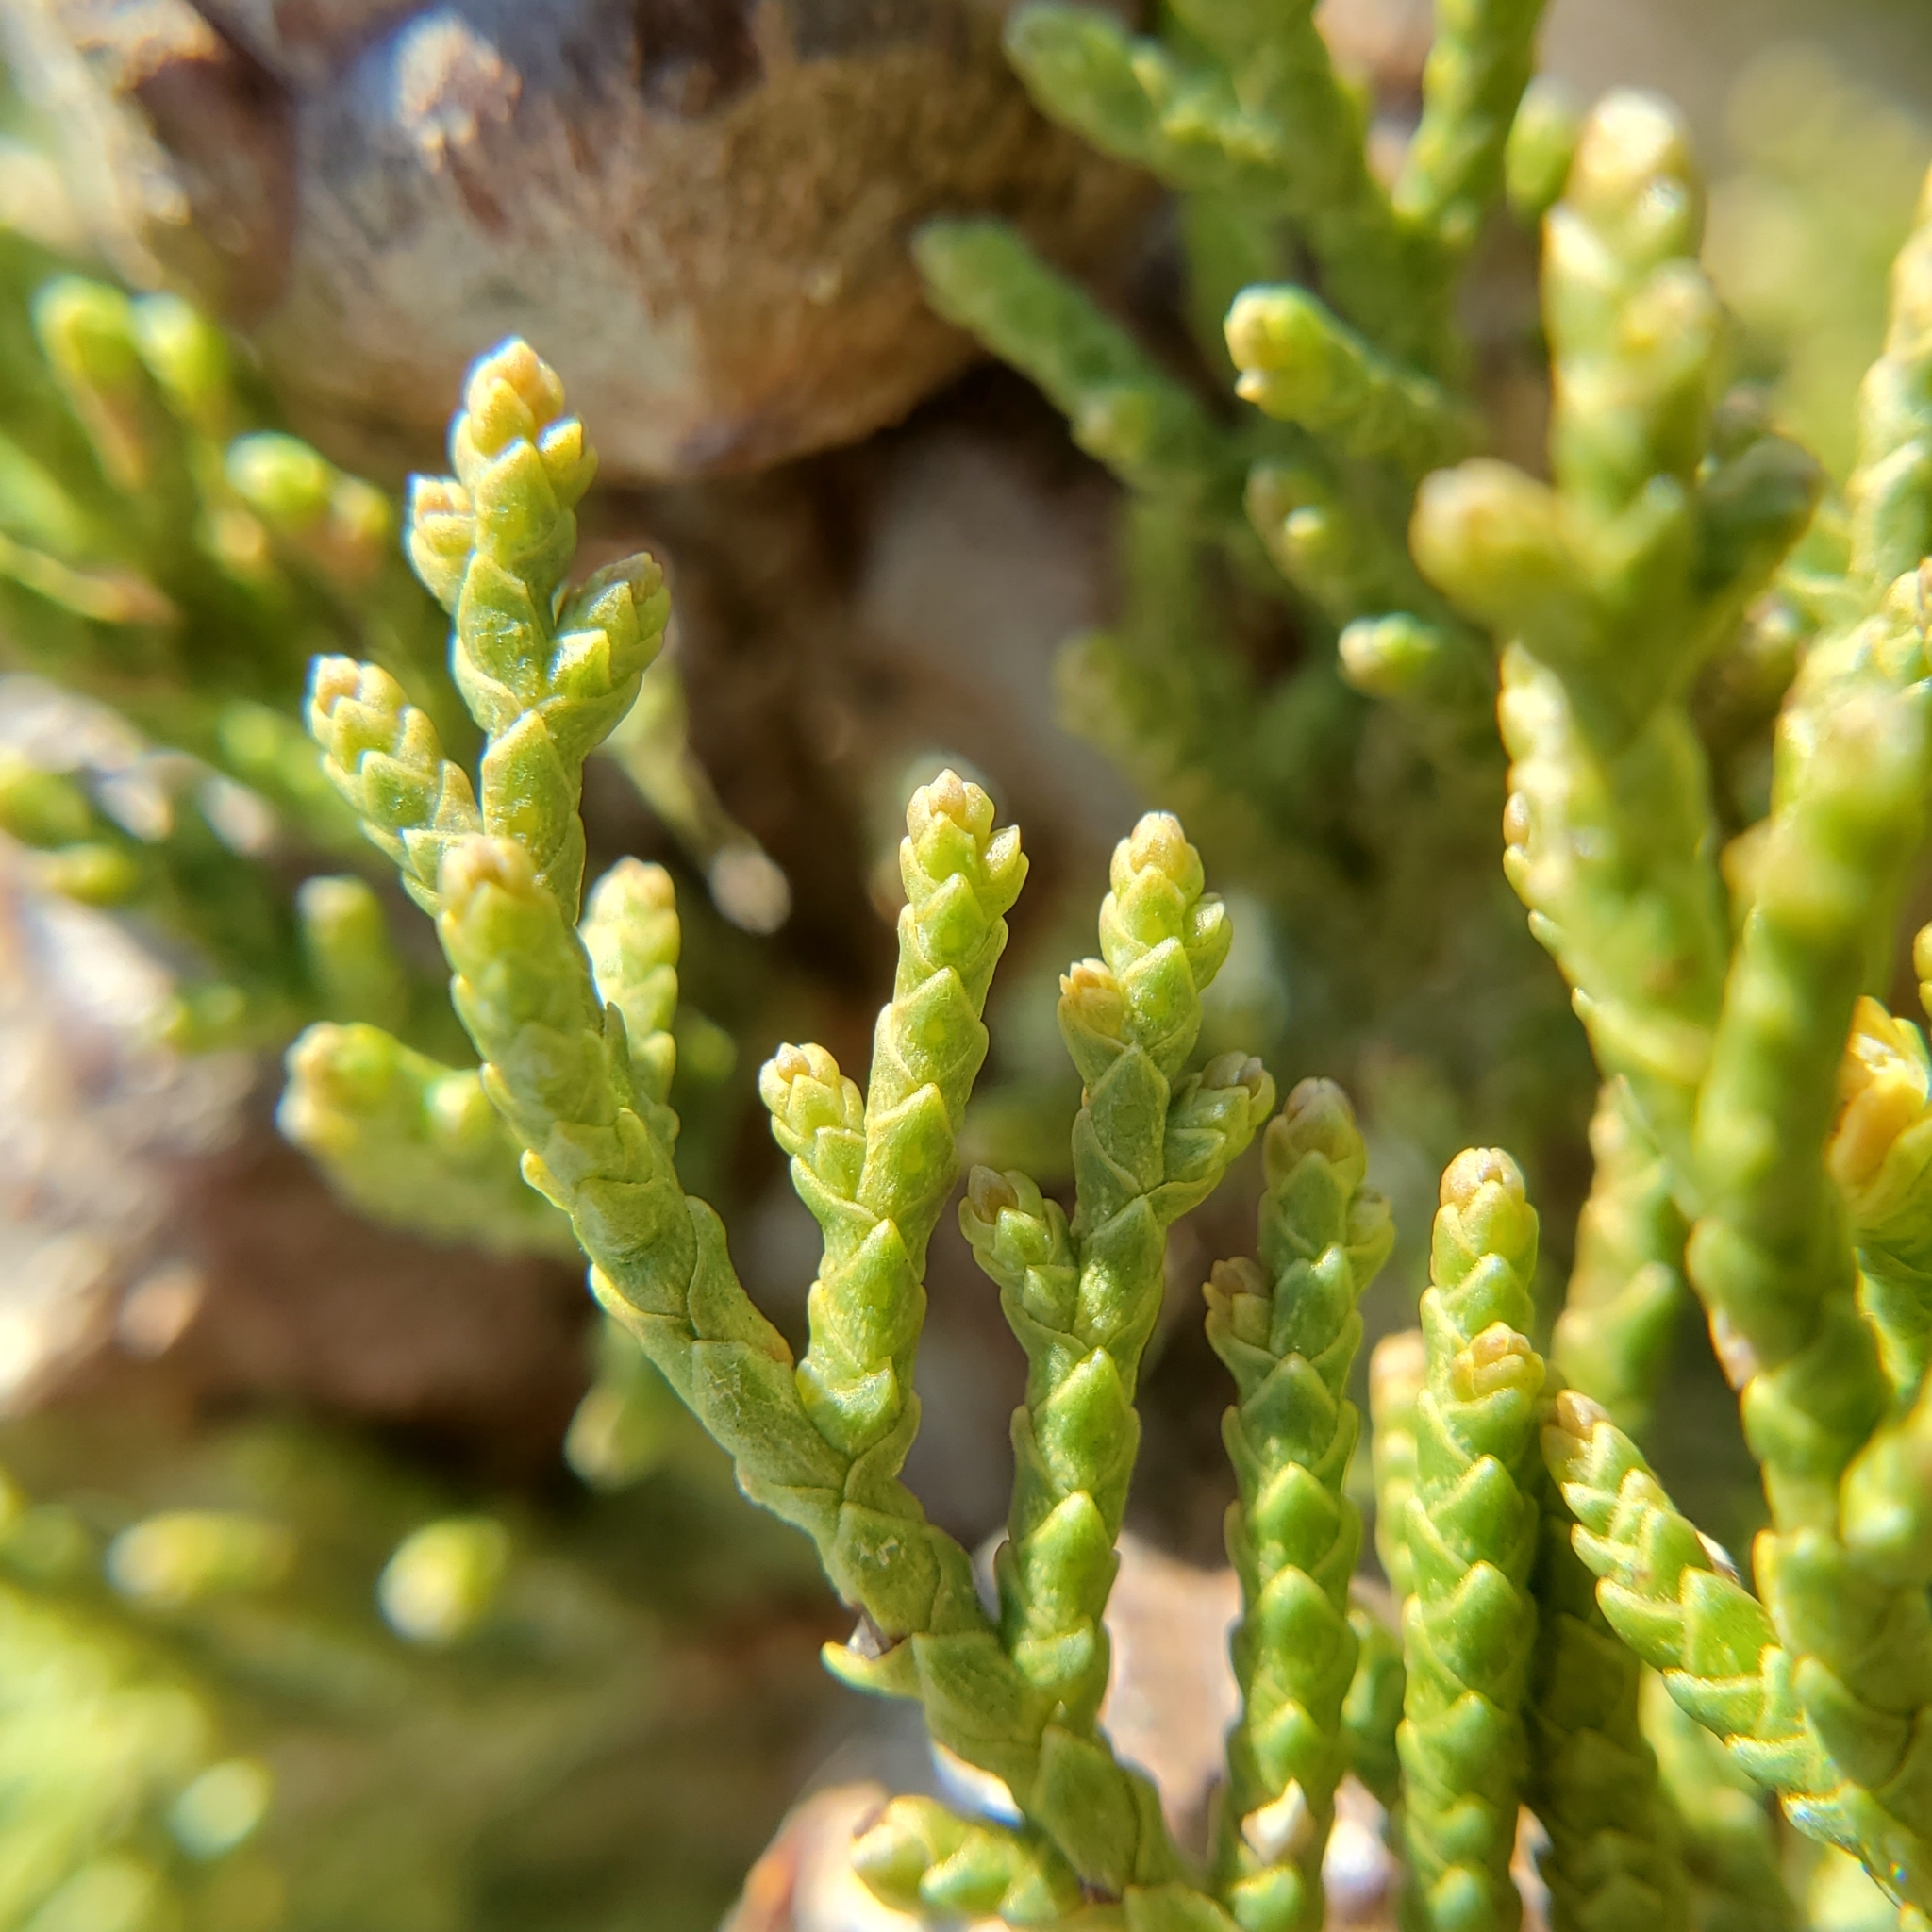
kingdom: Plantae
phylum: Tracheophyta
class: Pinopsida
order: Pinales
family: Cupressaceae
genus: Cupressus
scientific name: Cupressus guadalupensis
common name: Forbes cypress
